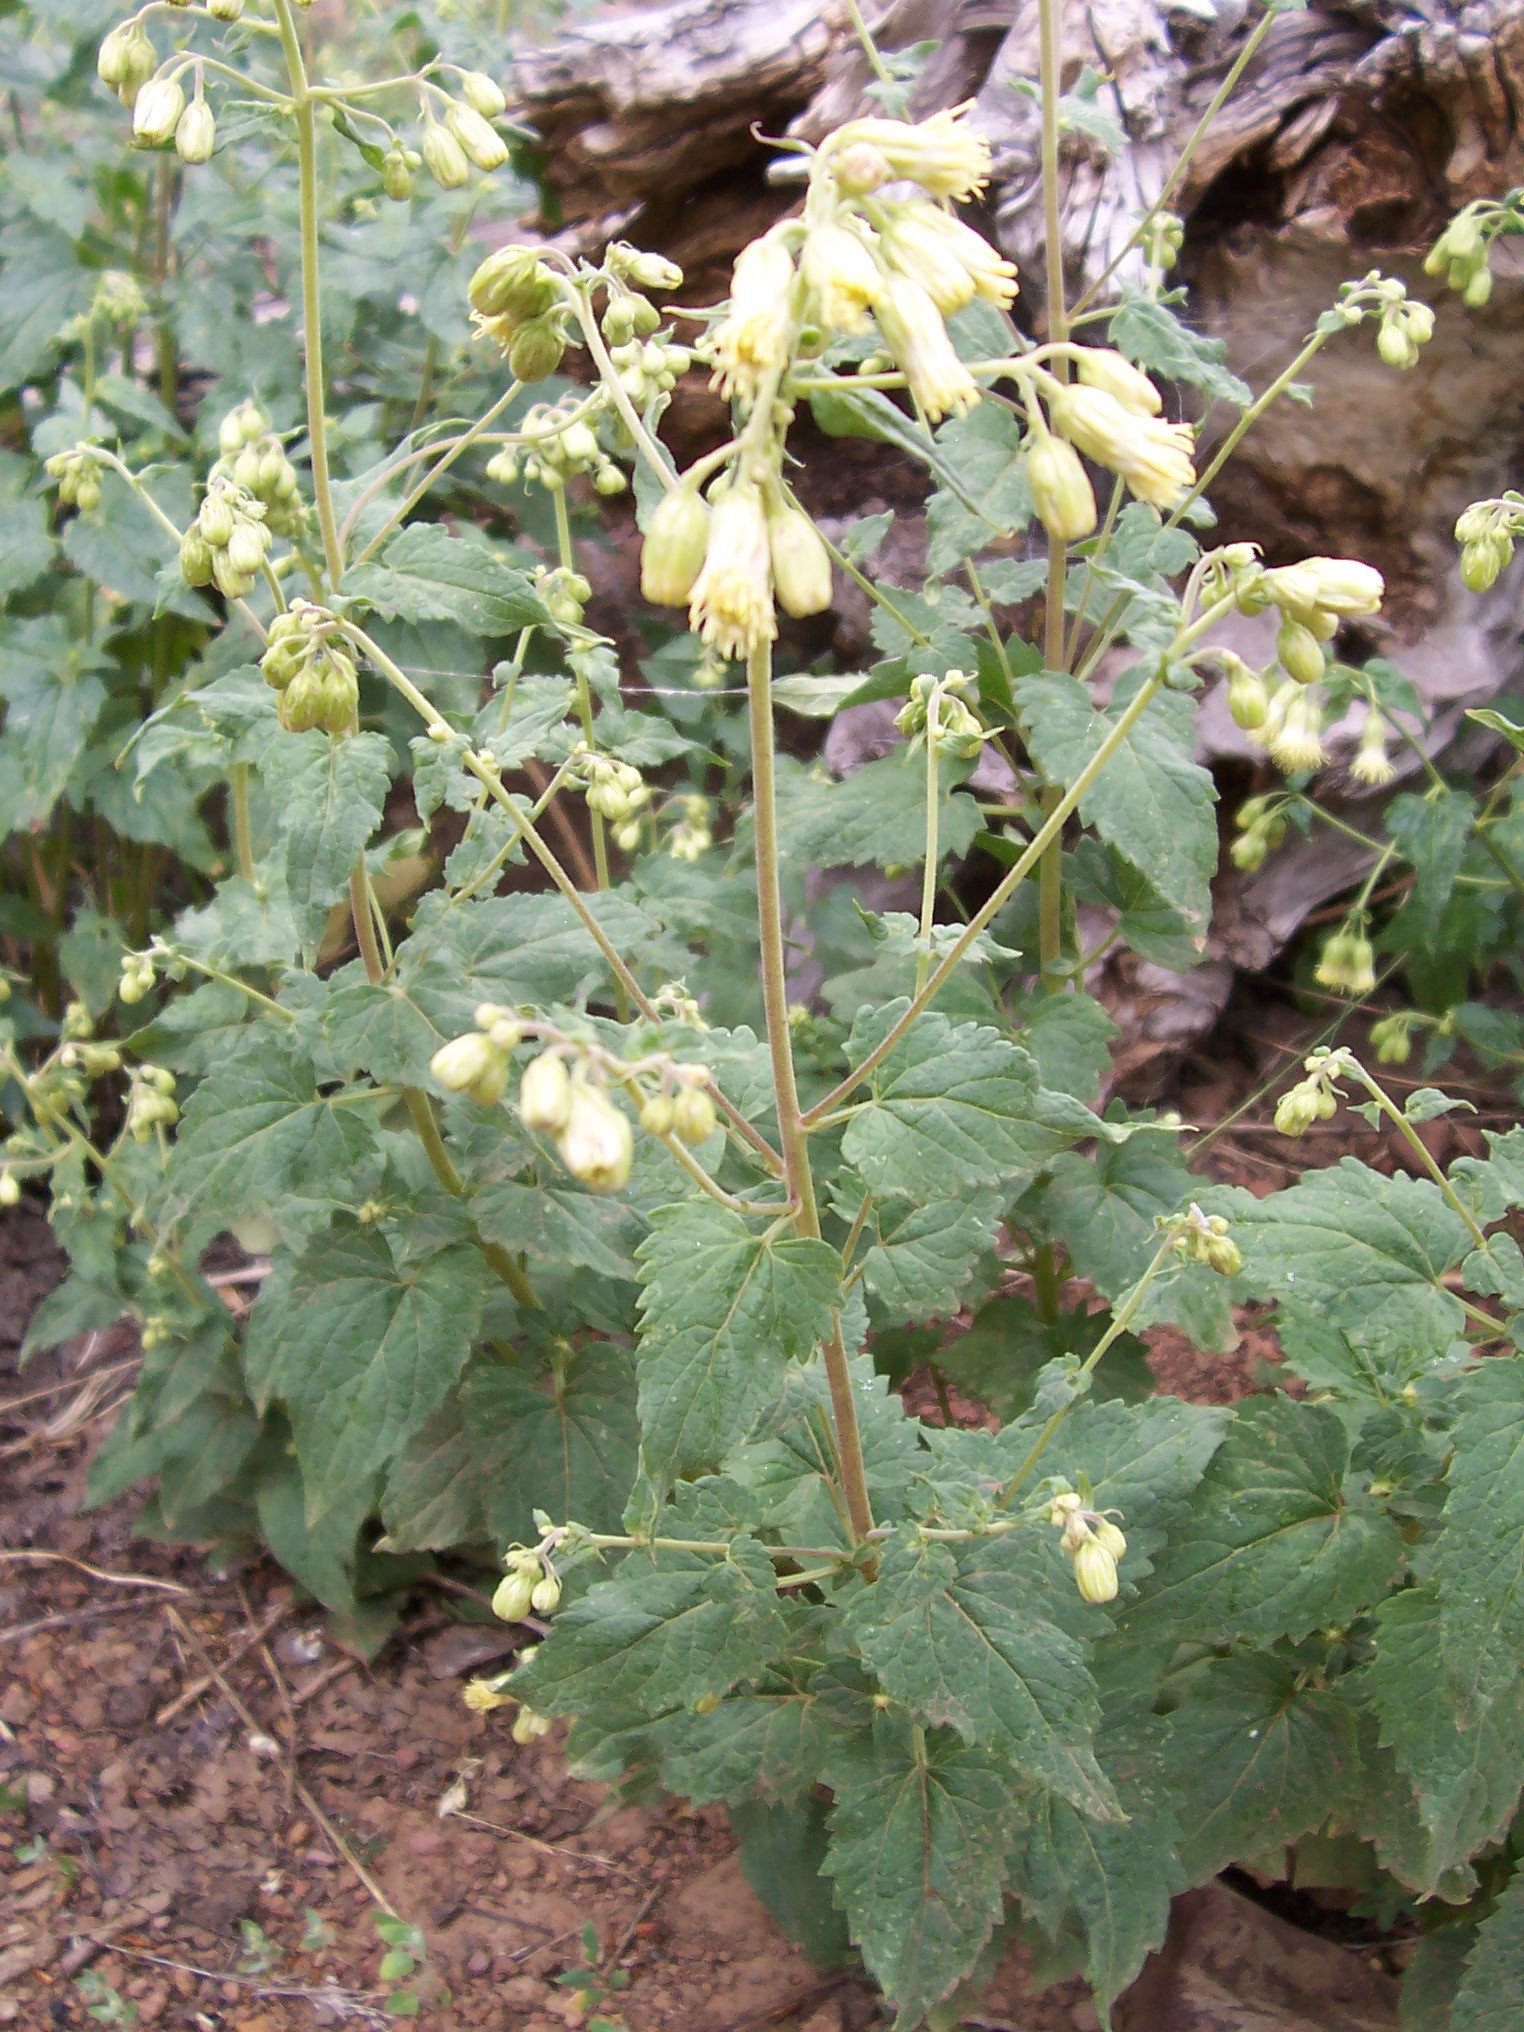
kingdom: Plantae
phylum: Tracheophyta
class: Magnoliopsida
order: Asterales
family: Asteraceae
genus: Brickellia
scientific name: Brickellia grandiflora
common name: Large-flowered brickellia
